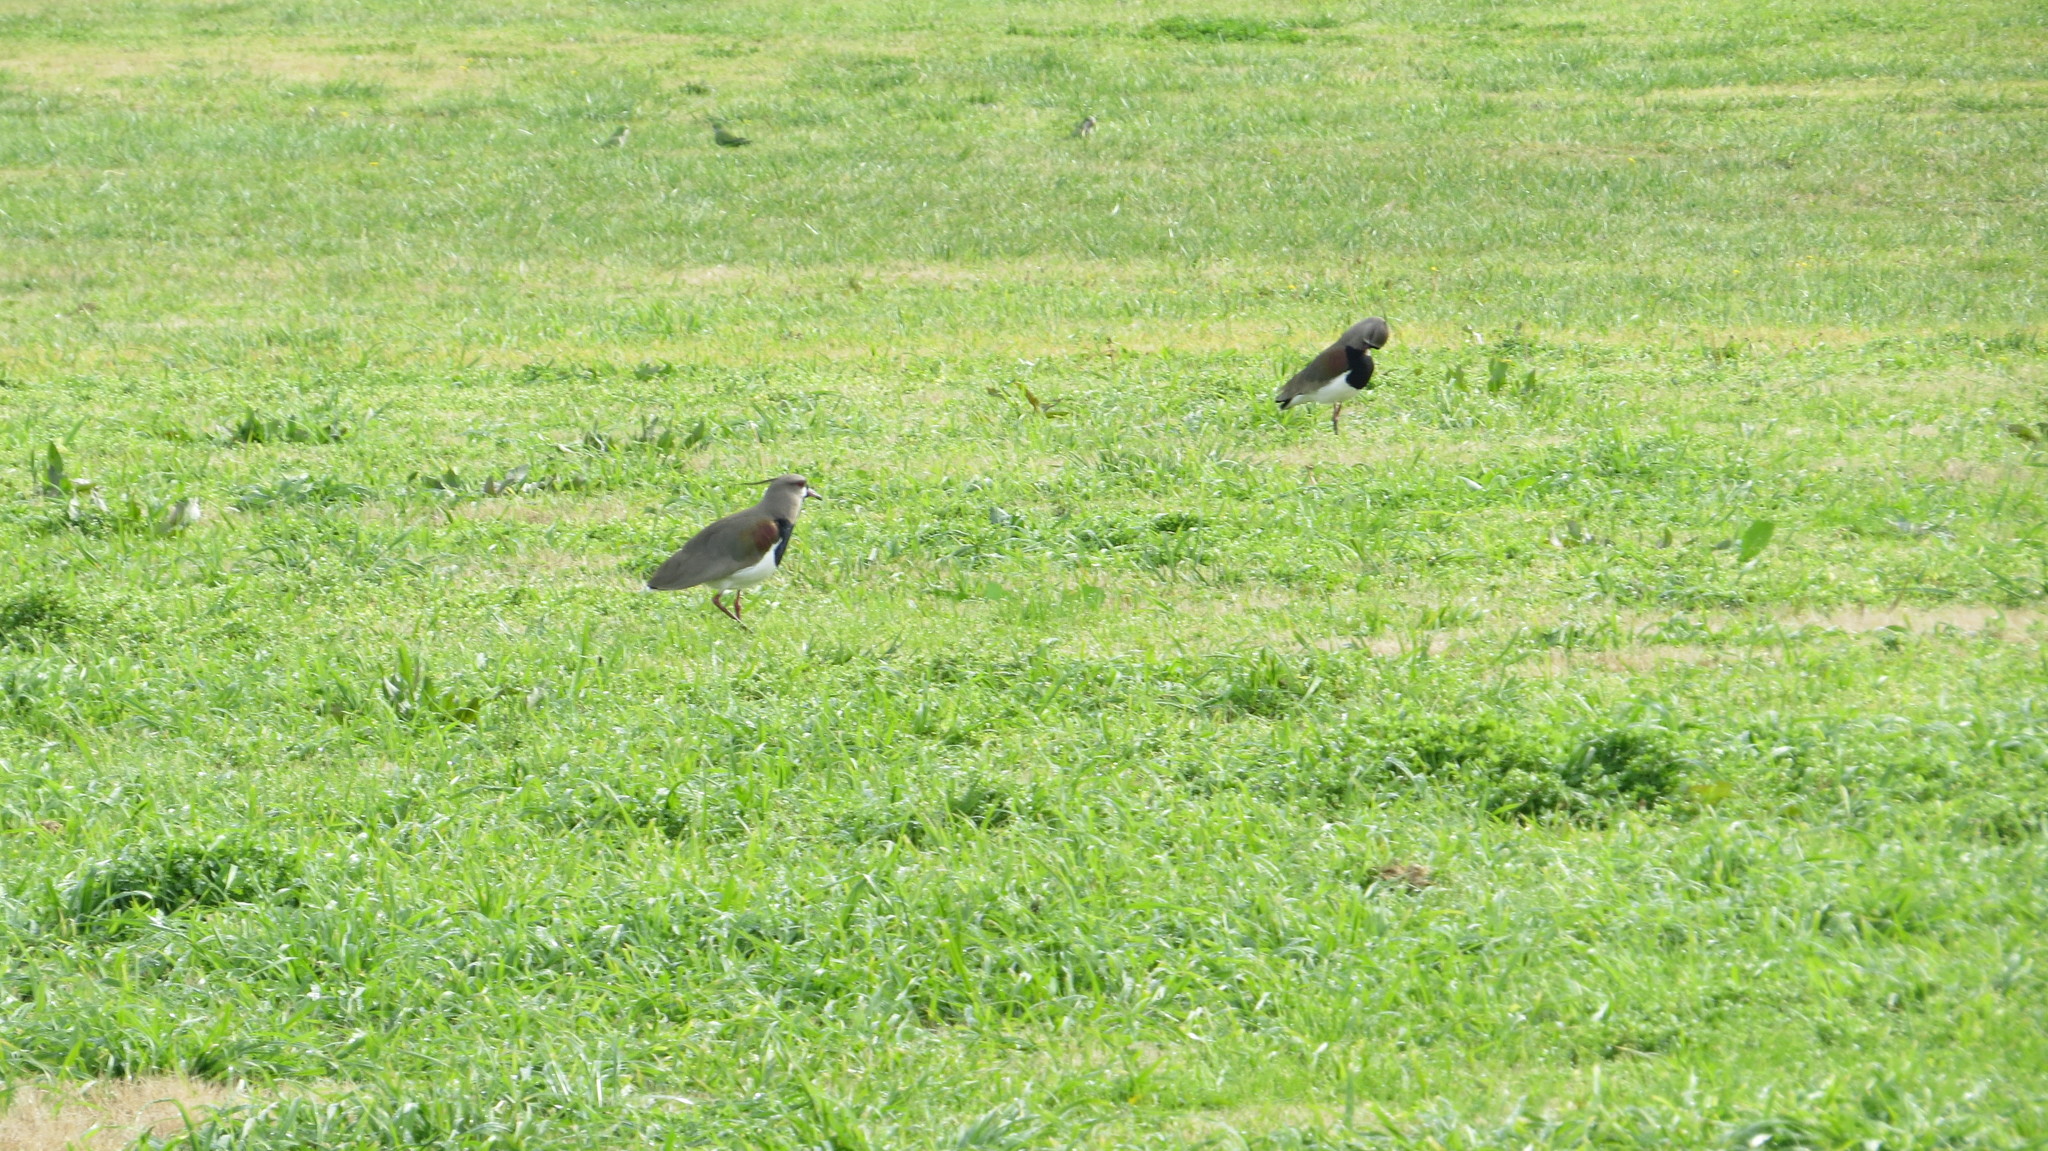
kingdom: Animalia
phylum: Chordata
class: Aves
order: Charadriiformes
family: Charadriidae
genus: Vanellus
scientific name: Vanellus chilensis
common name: Southern lapwing
